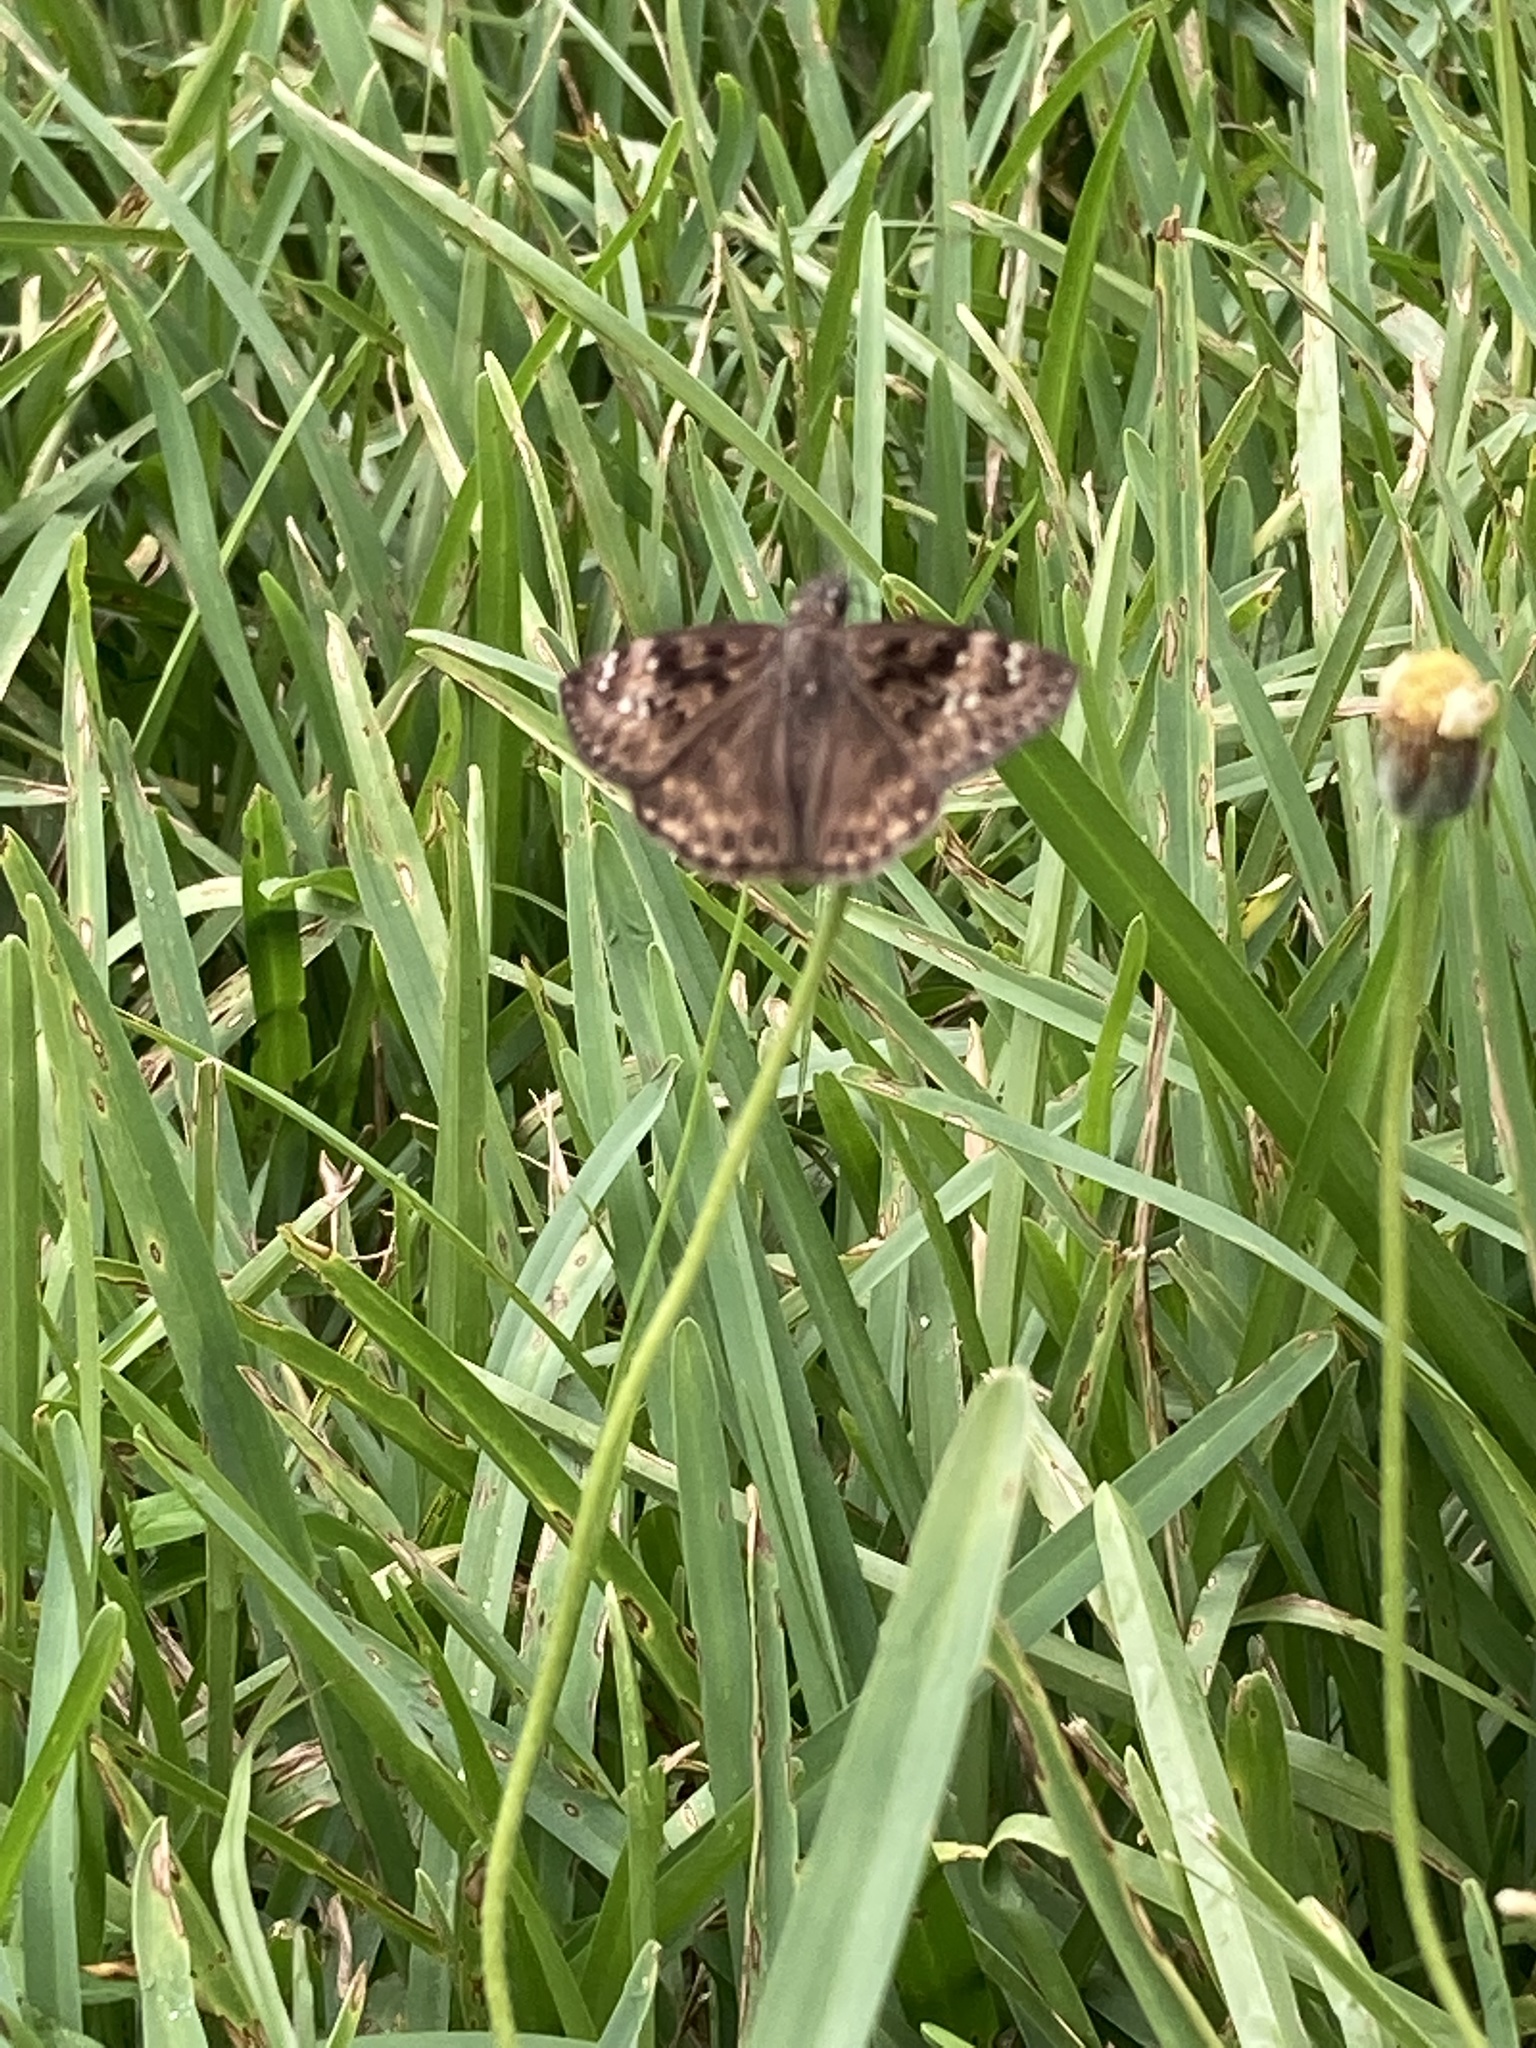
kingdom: Animalia
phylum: Arthropoda
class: Insecta
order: Lepidoptera
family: Hesperiidae
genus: Erynnis
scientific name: Erynnis horatius
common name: Horace's duskywing
